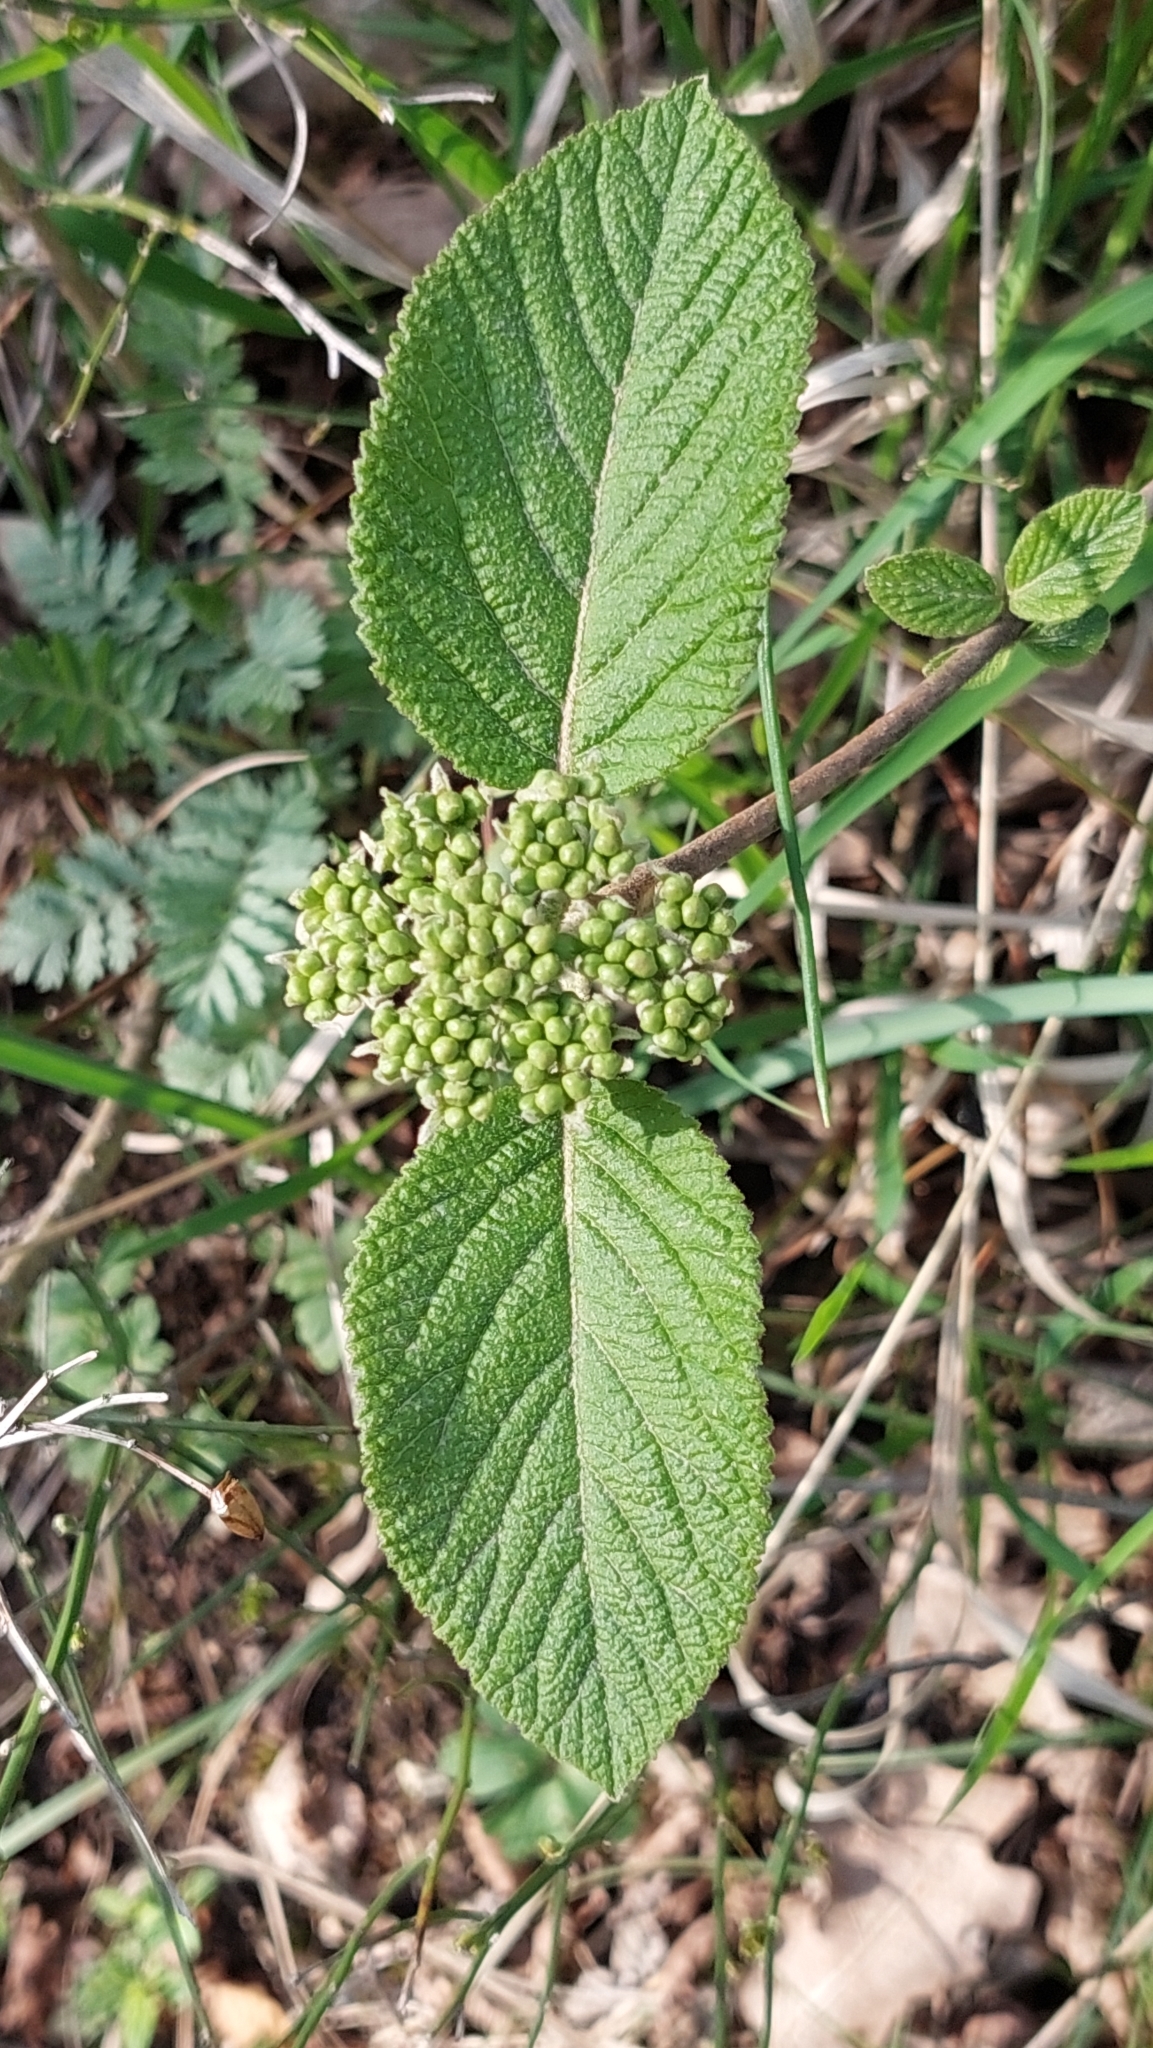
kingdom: Plantae
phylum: Tracheophyta
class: Magnoliopsida
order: Dipsacales
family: Viburnaceae
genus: Viburnum
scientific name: Viburnum lantana
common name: Wayfaring tree
